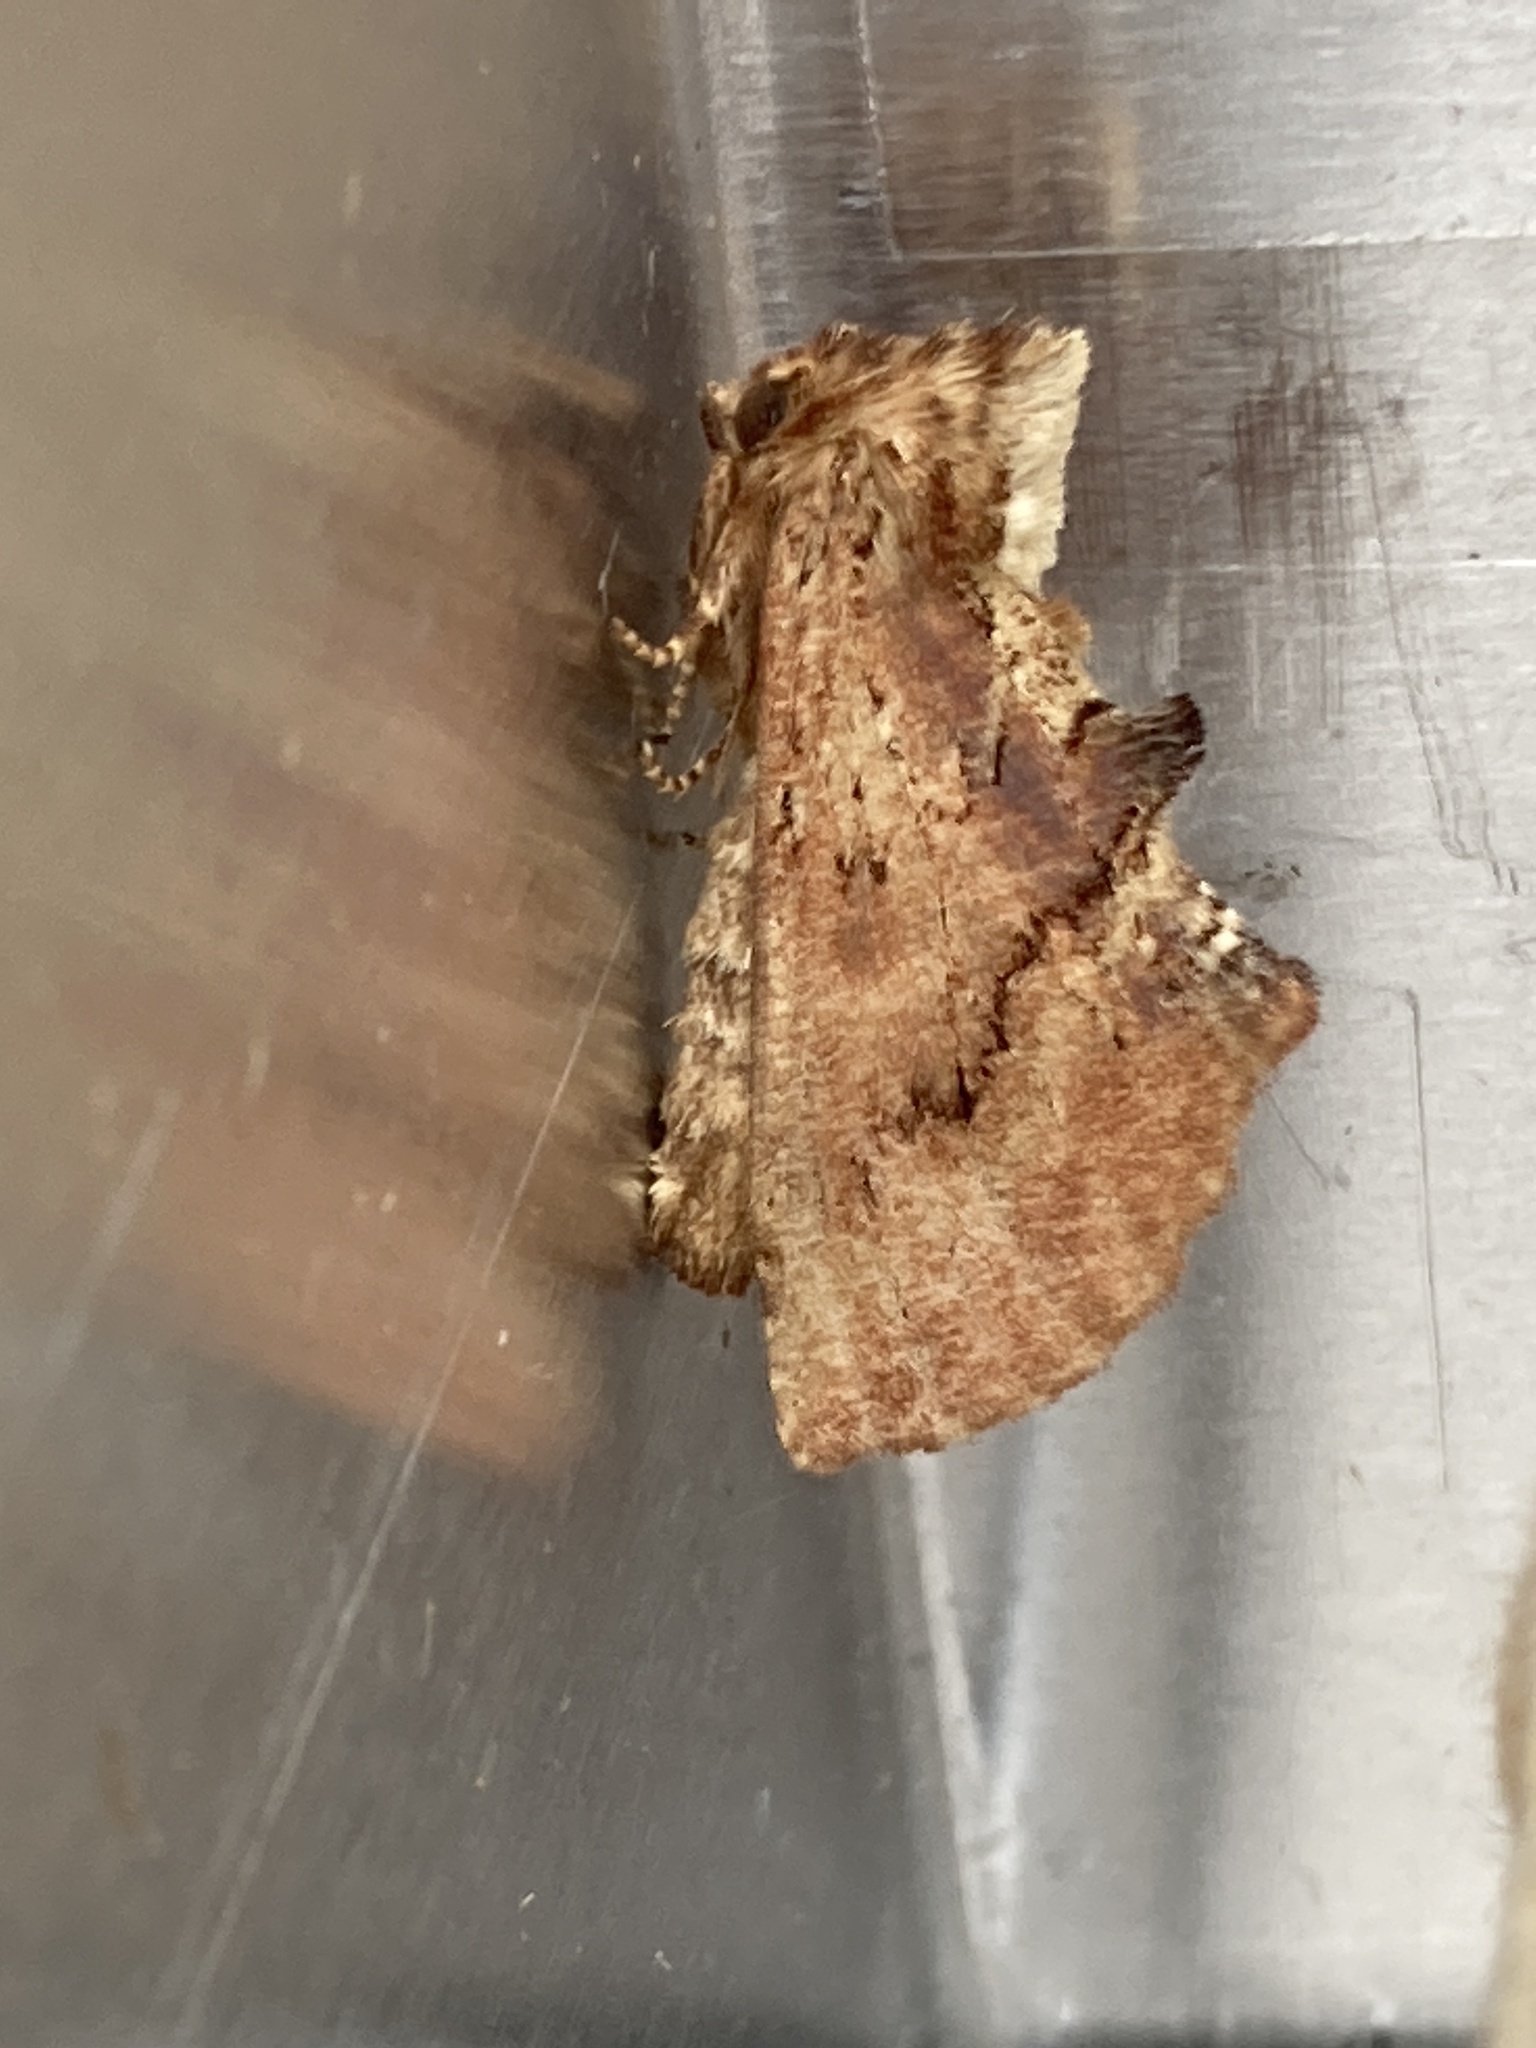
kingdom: Animalia
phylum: Arthropoda
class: Insecta
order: Lepidoptera
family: Notodontidae
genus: Ptilodon
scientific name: Ptilodon capucina
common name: Coxcomb prominent
